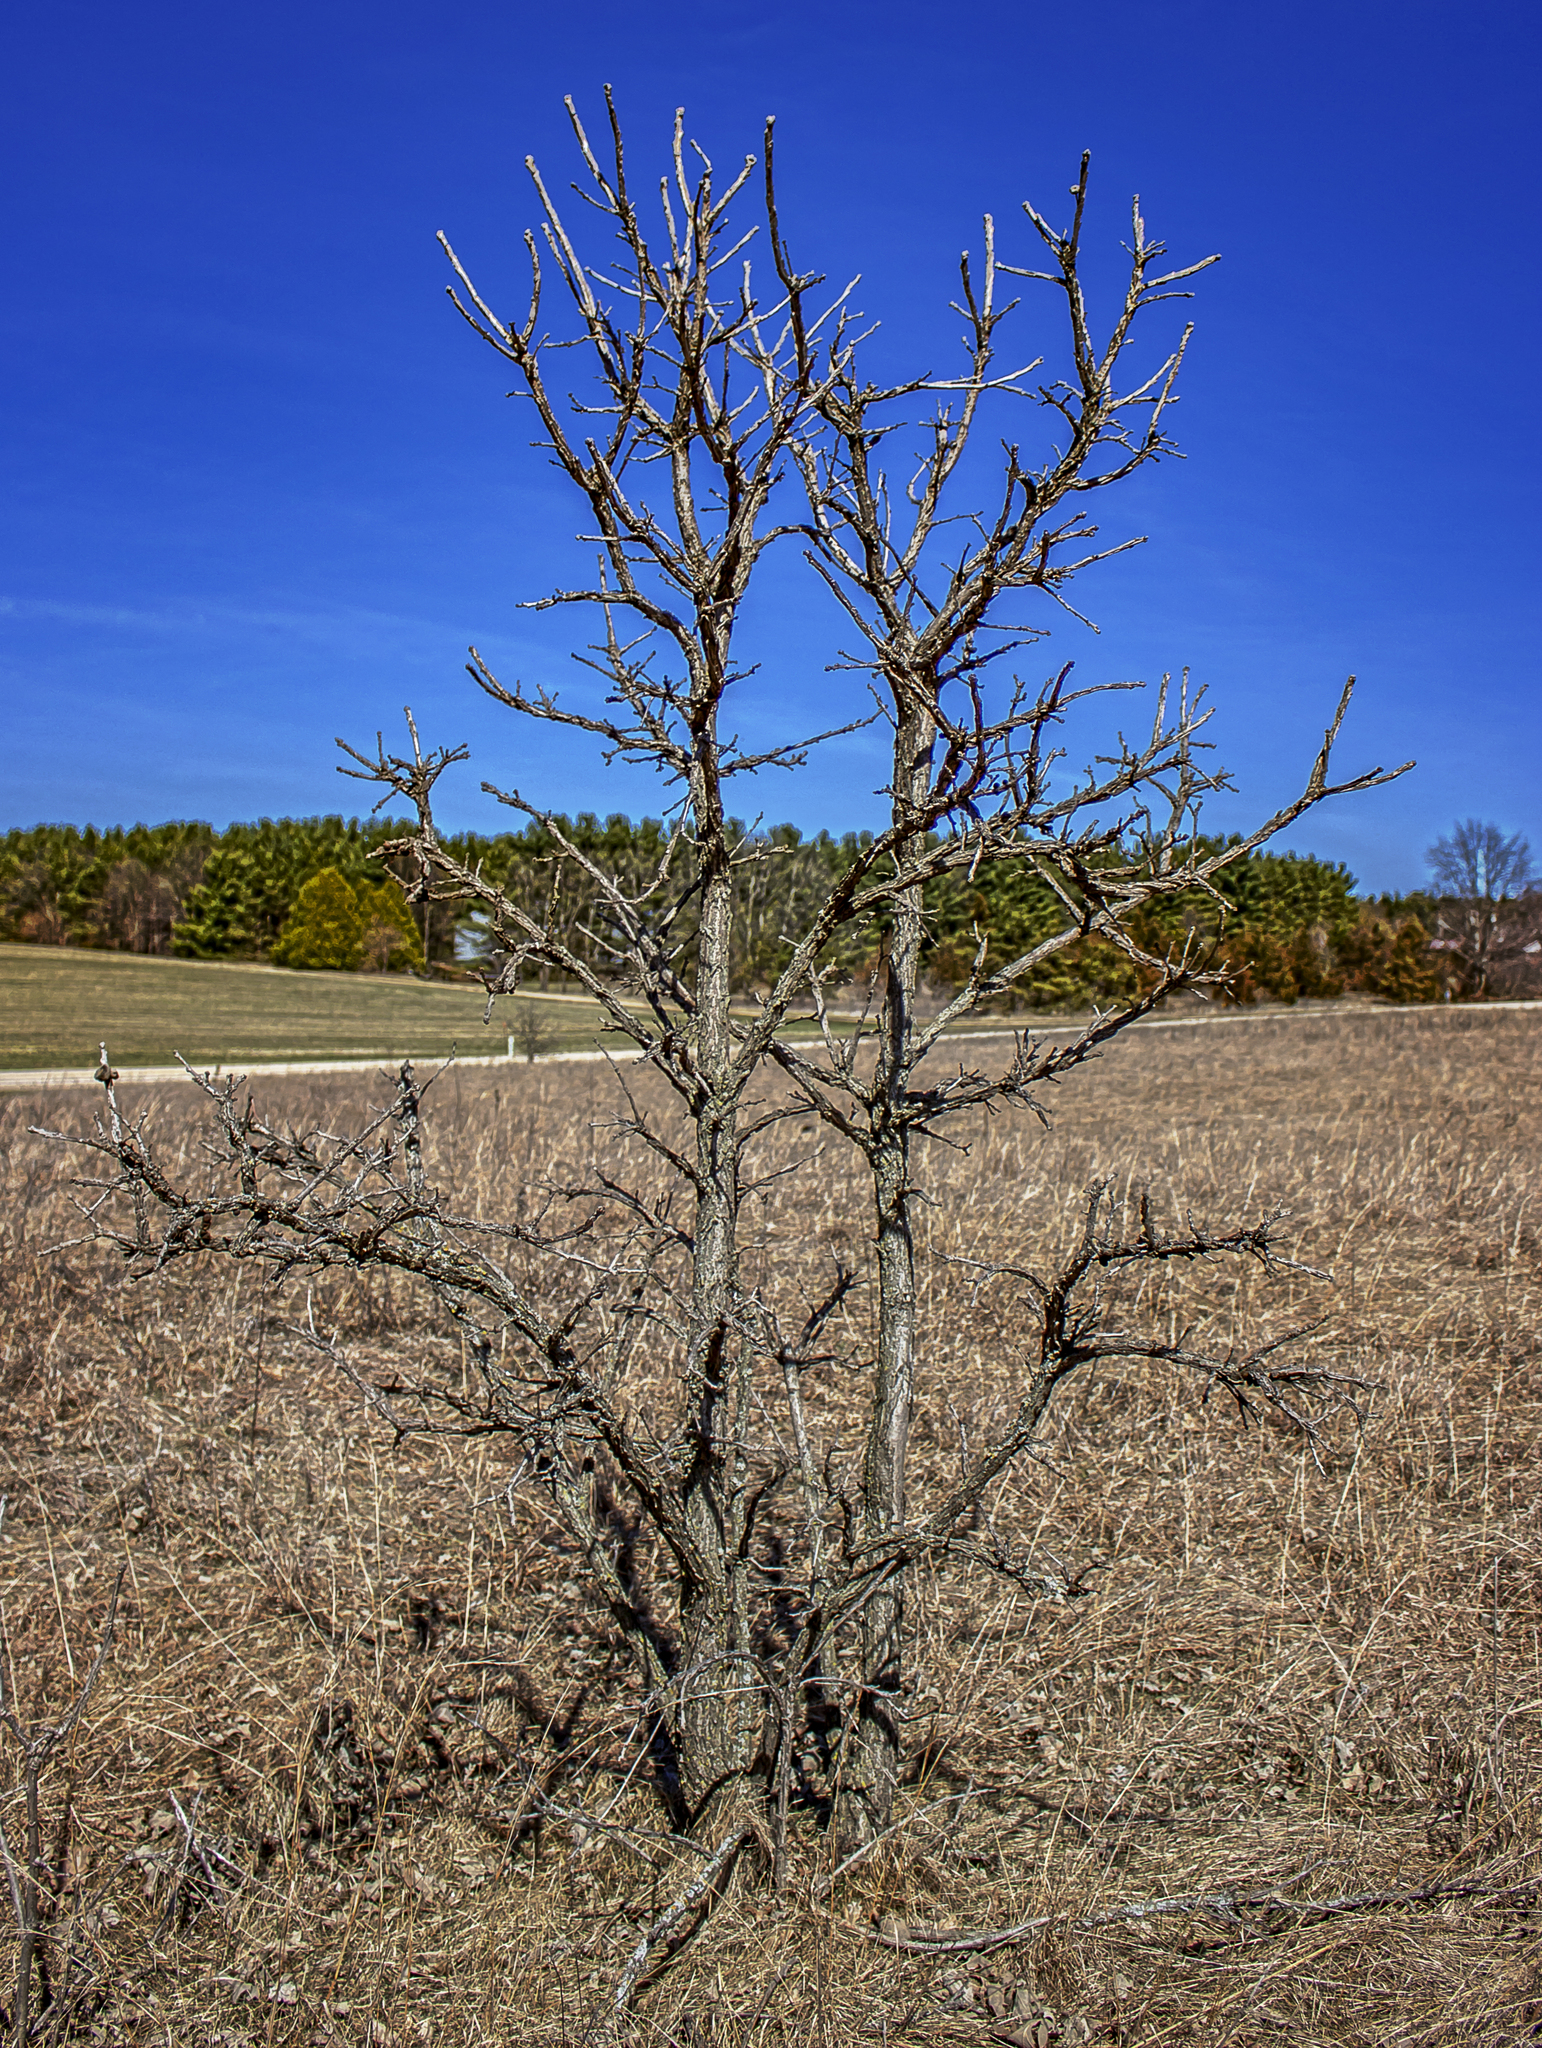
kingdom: Plantae
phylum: Tracheophyta
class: Magnoliopsida
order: Fagales
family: Fagaceae
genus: Quercus
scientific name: Quercus macrocarpa
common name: Bur oak
